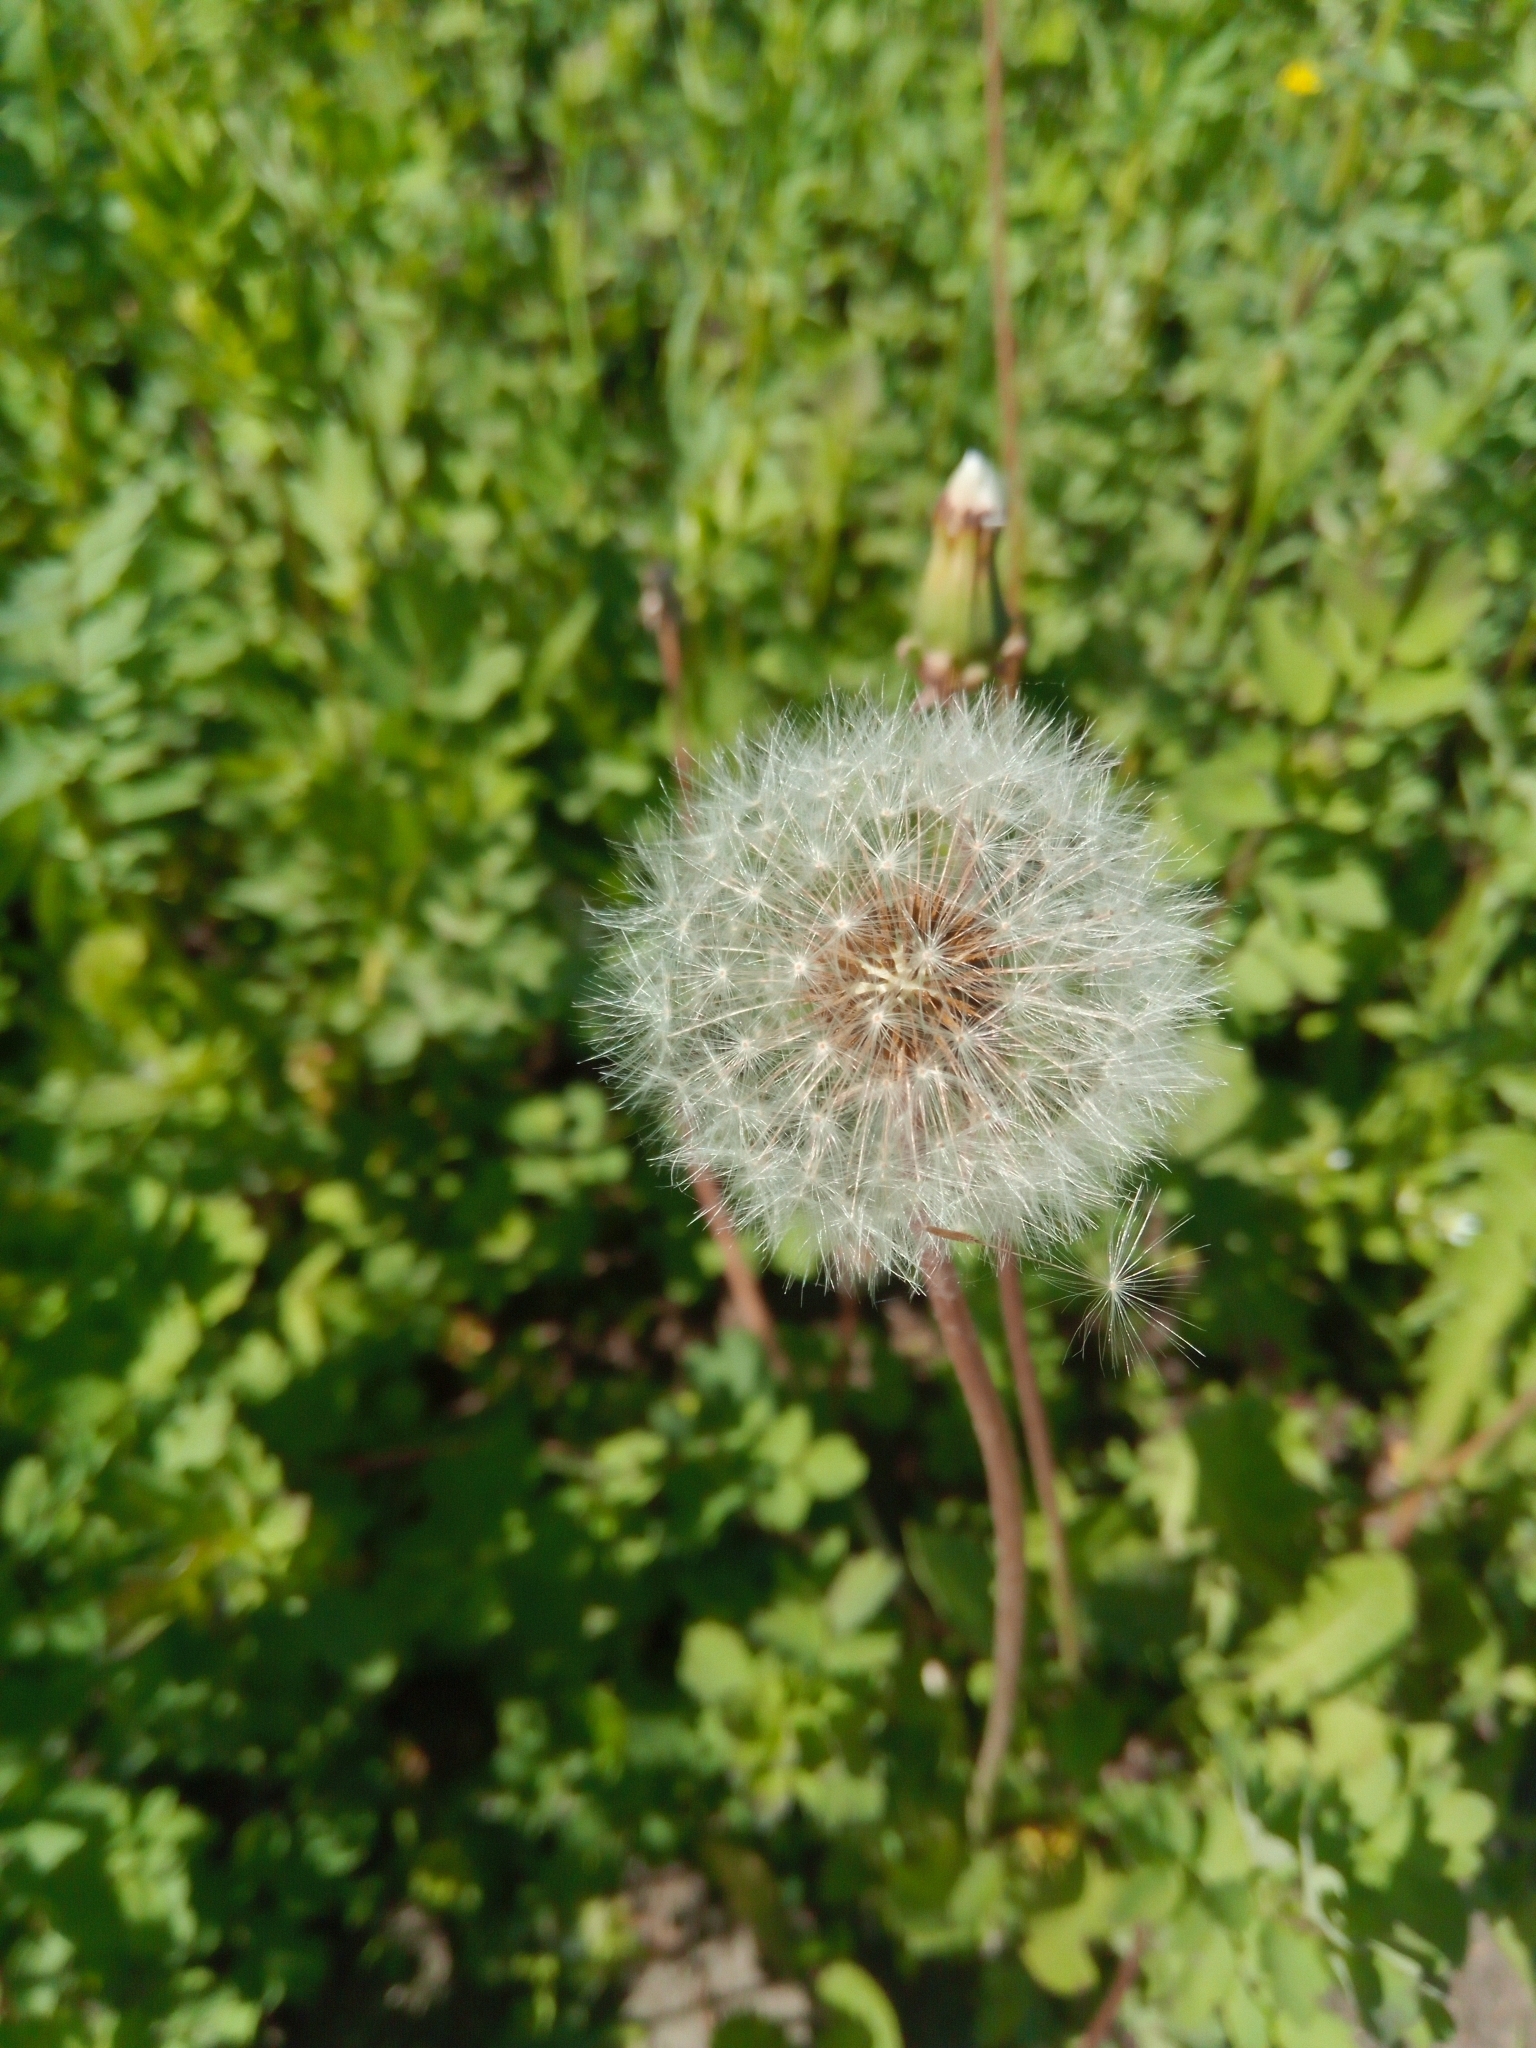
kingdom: Plantae
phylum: Tracheophyta
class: Magnoliopsida
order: Asterales
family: Asteraceae
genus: Taraxacum
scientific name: Taraxacum officinale
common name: Common dandelion
